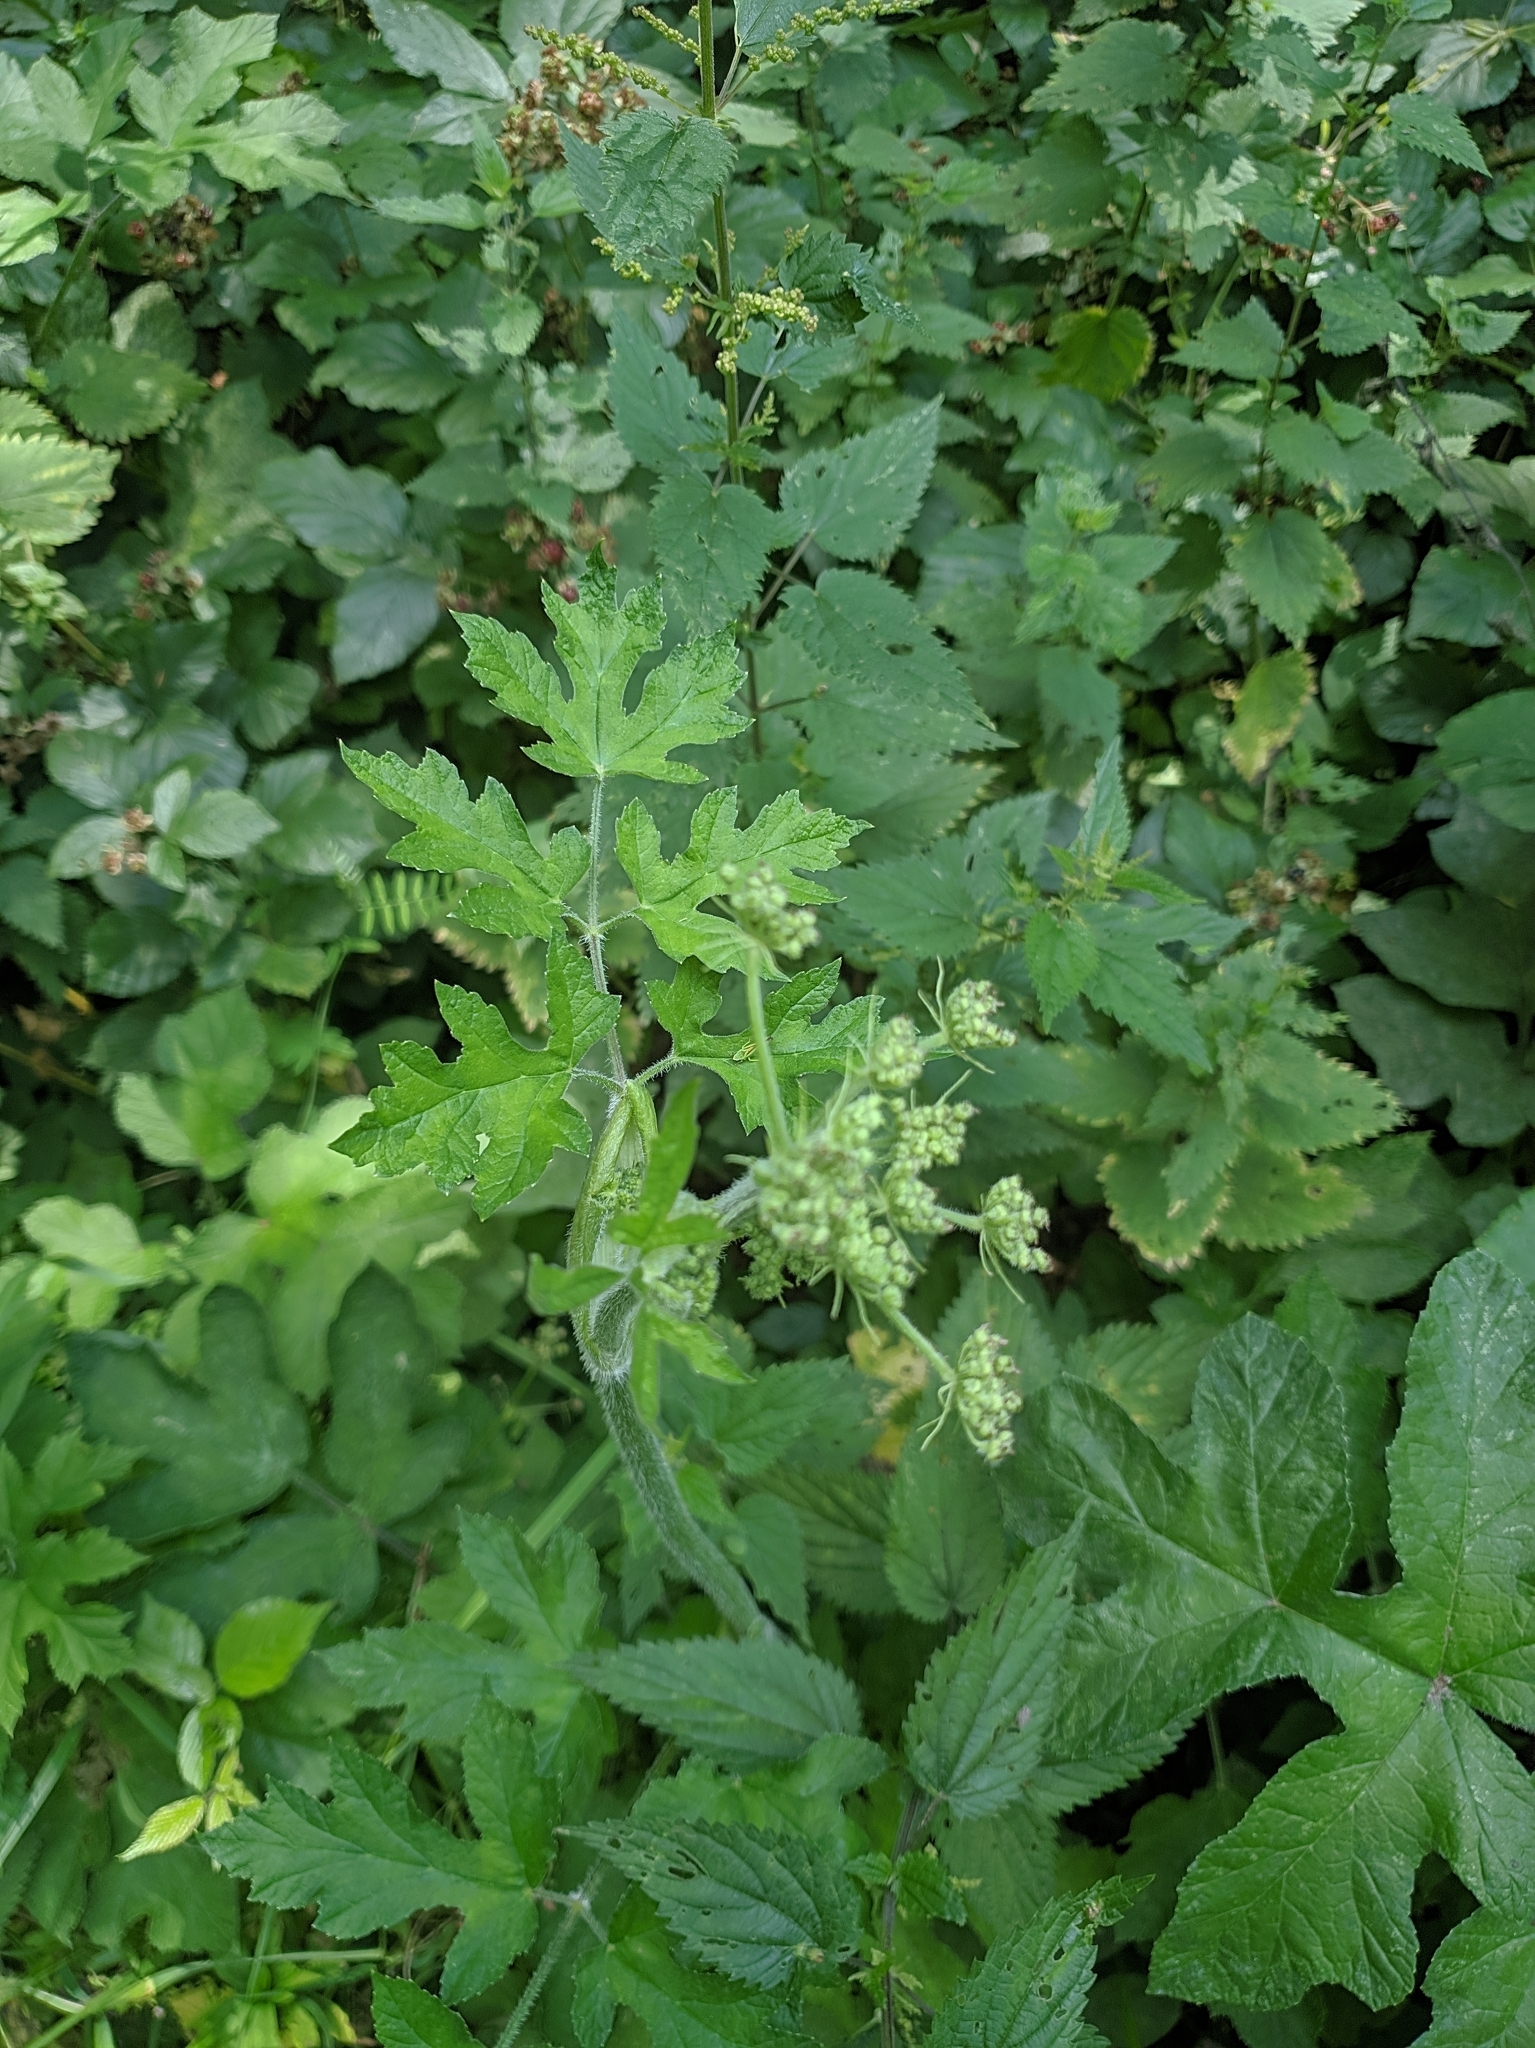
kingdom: Plantae
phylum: Tracheophyta
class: Magnoliopsida
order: Apiales
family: Apiaceae
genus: Heracleum
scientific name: Heracleum sphondylium
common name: Hogweed
